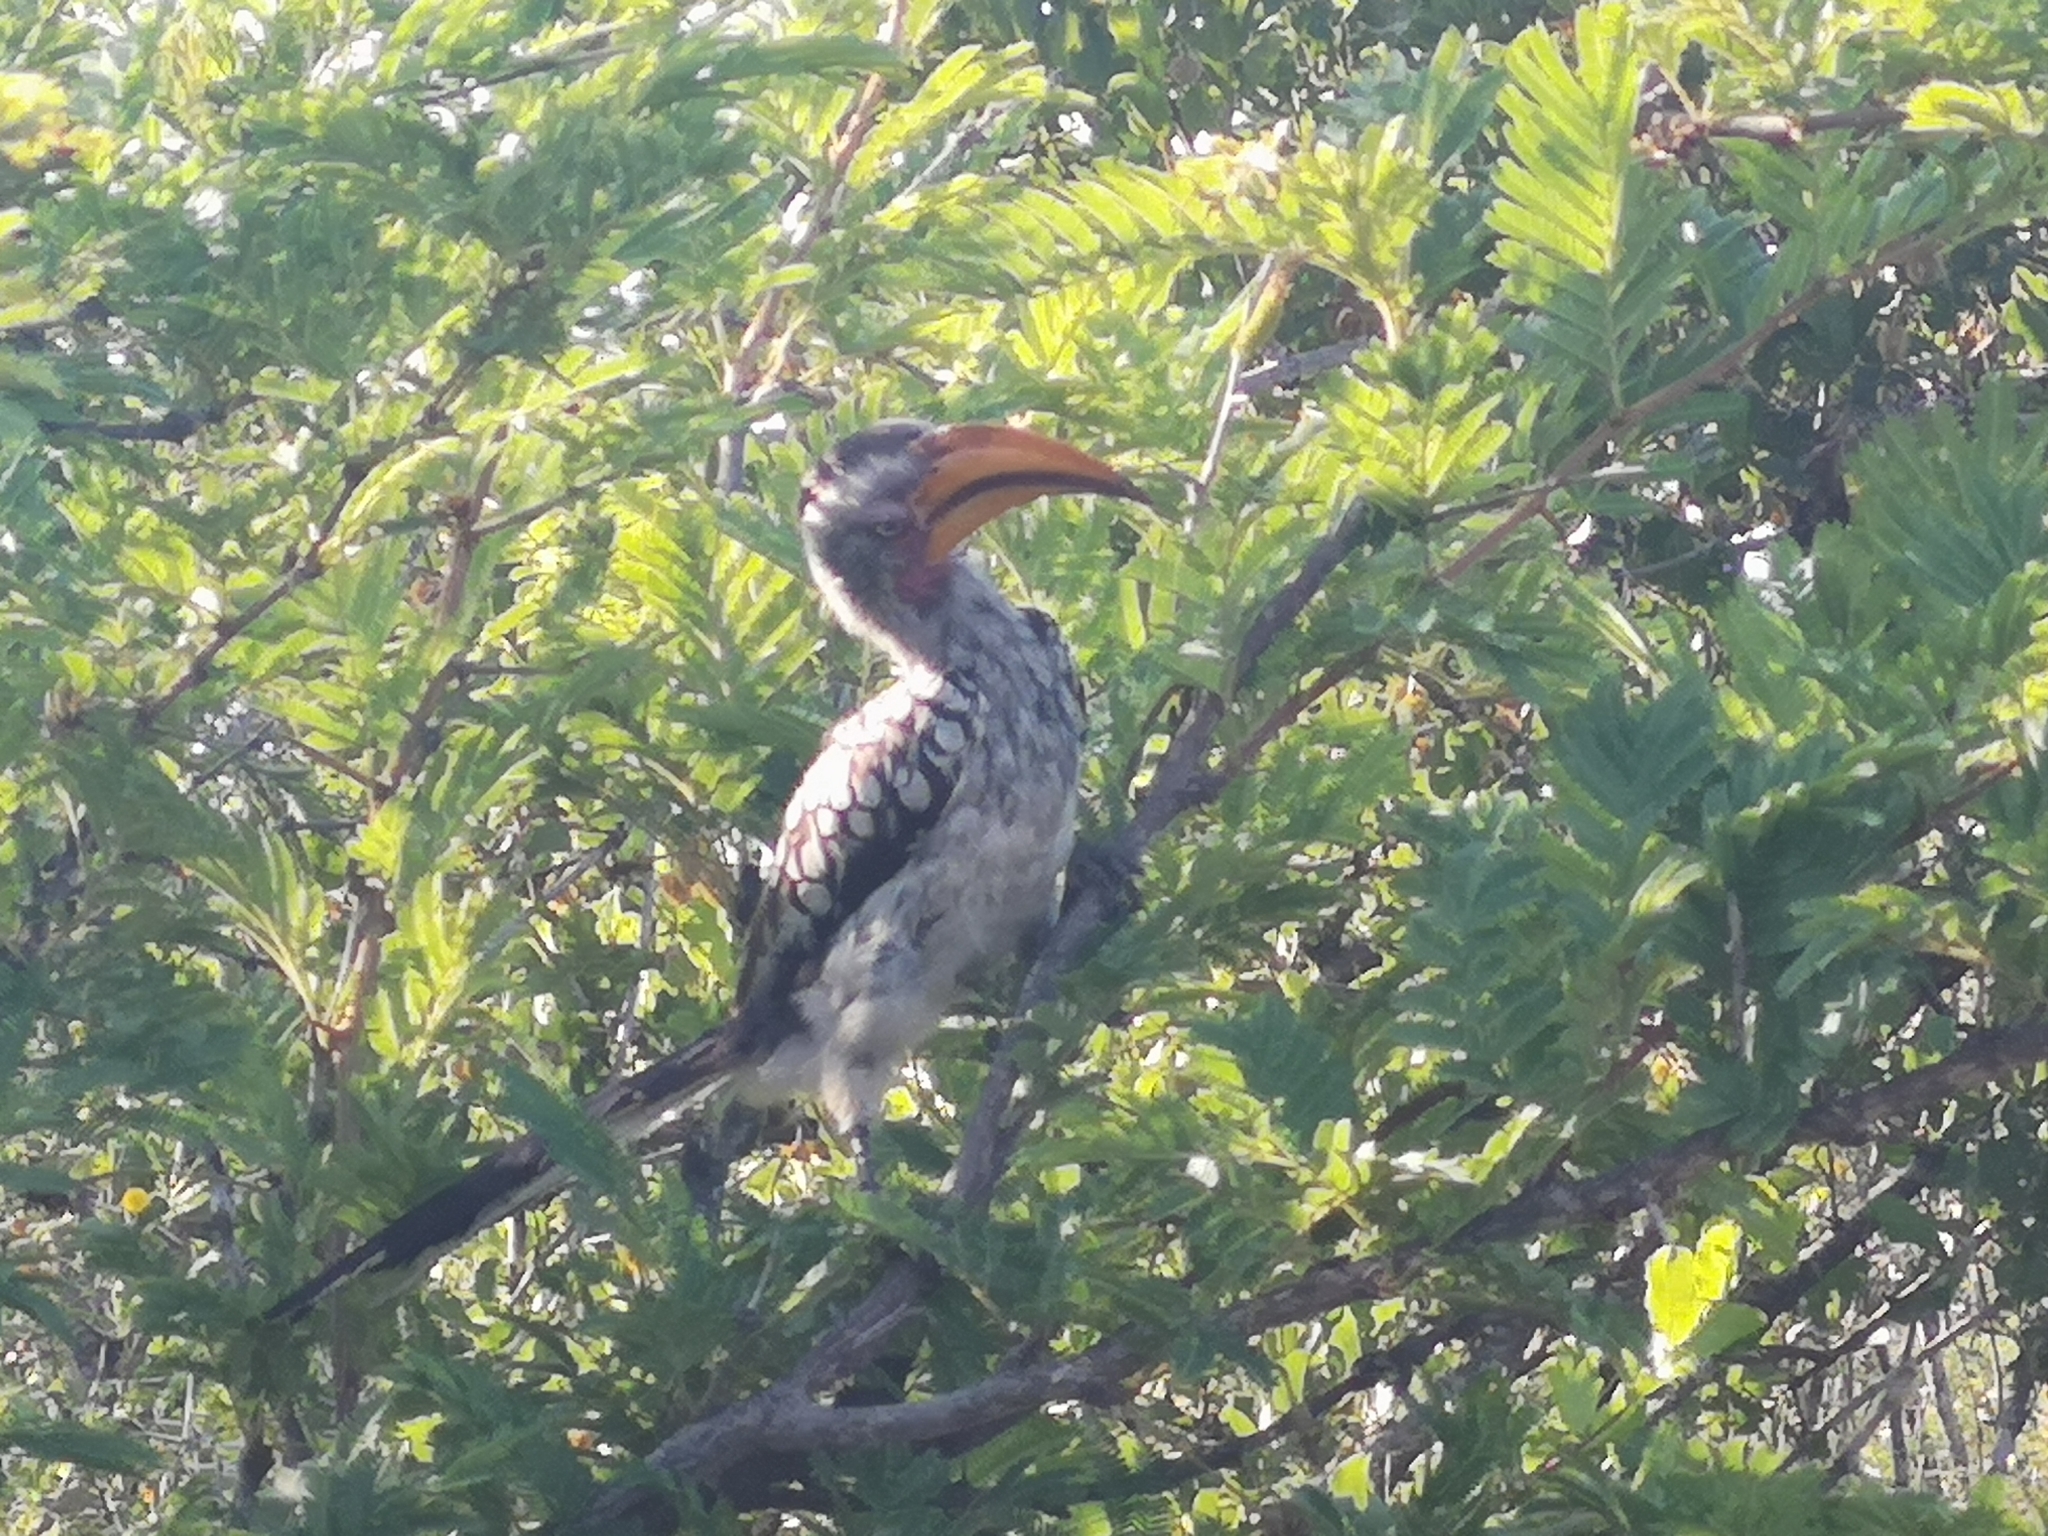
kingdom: Animalia
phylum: Chordata
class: Aves
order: Bucerotiformes
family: Bucerotidae
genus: Tockus
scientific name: Tockus leucomelas
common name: Southern yellow-billed hornbill
